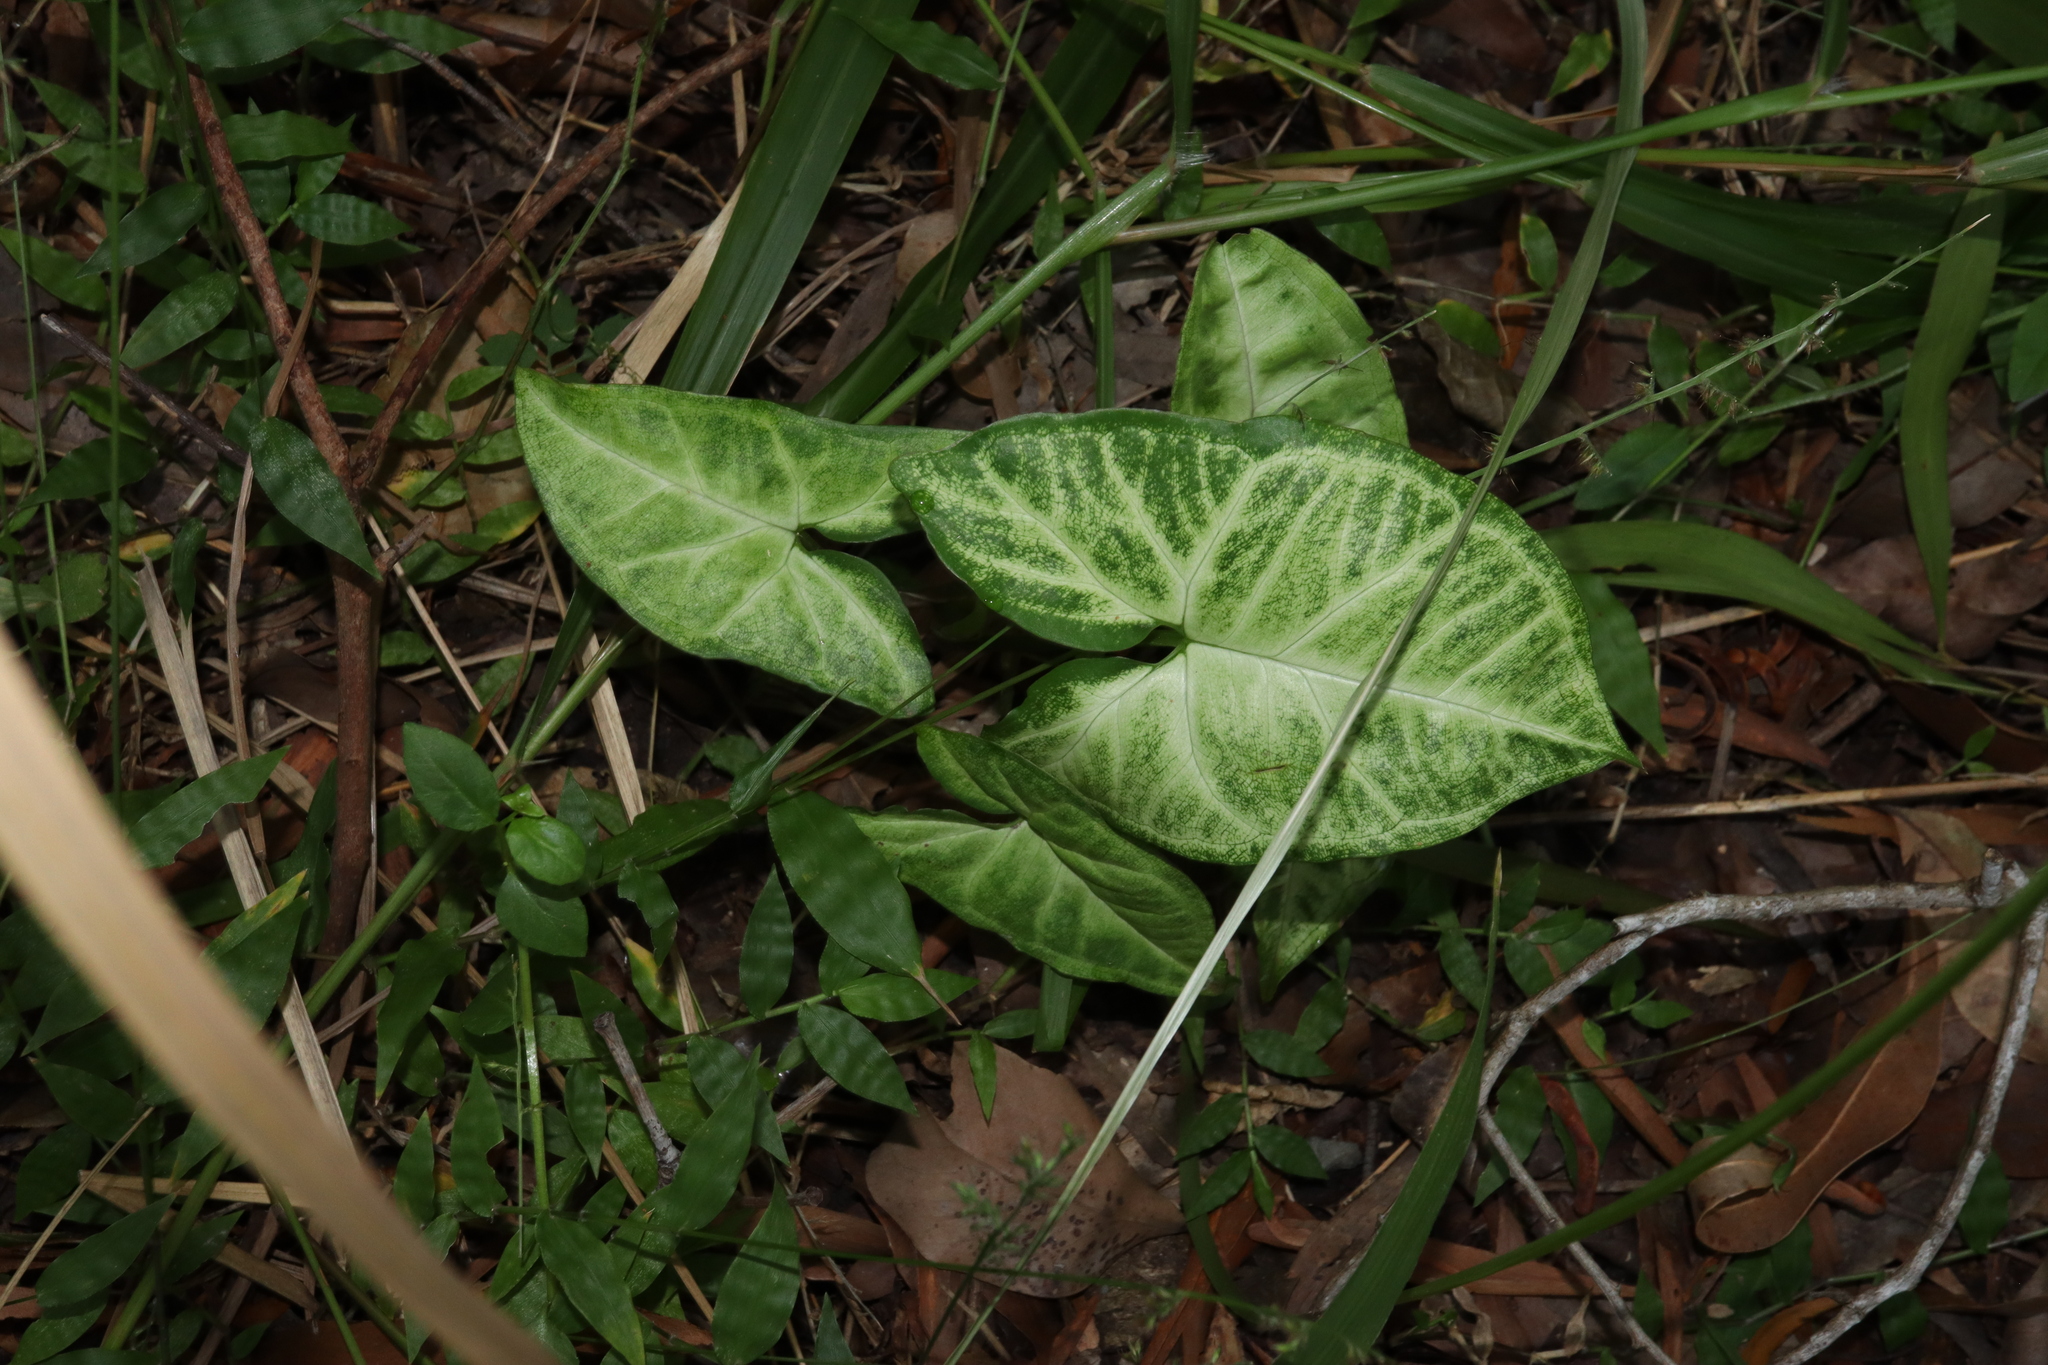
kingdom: Plantae
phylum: Tracheophyta
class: Liliopsida
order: Alismatales
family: Araceae
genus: Syngonium
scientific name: Syngonium podophyllum
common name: American evergreen
